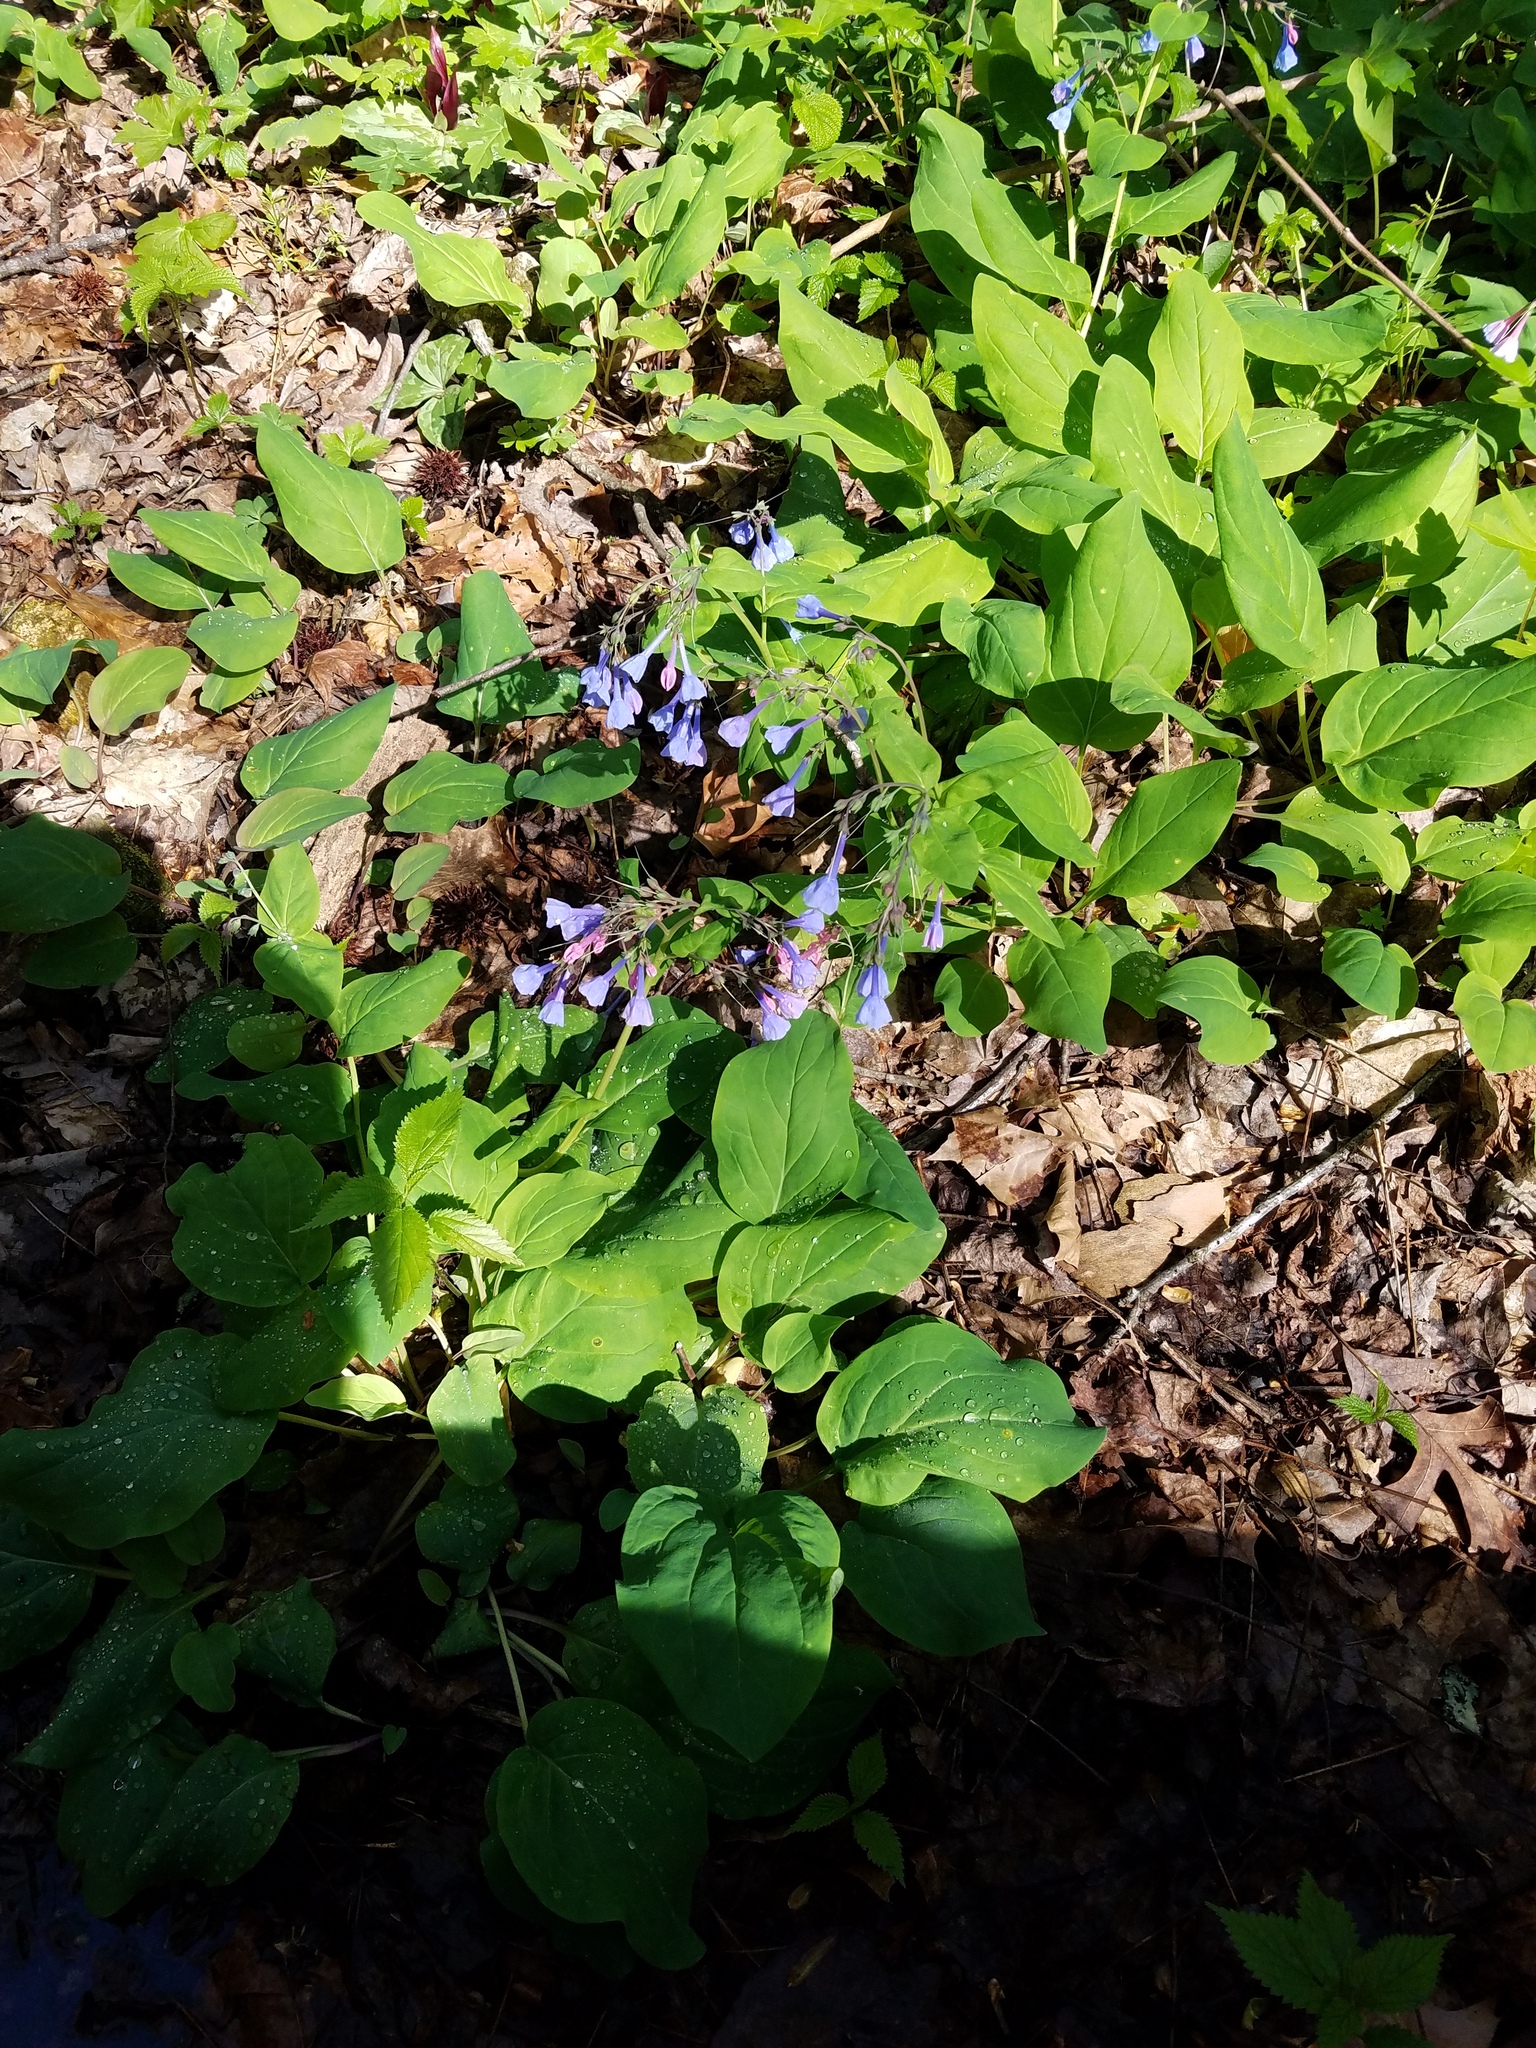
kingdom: Plantae
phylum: Tracheophyta
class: Magnoliopsida
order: Boraginales
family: Boraginaceae
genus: Mertensia
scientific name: Mertensia virginica
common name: Virginia bluebells
